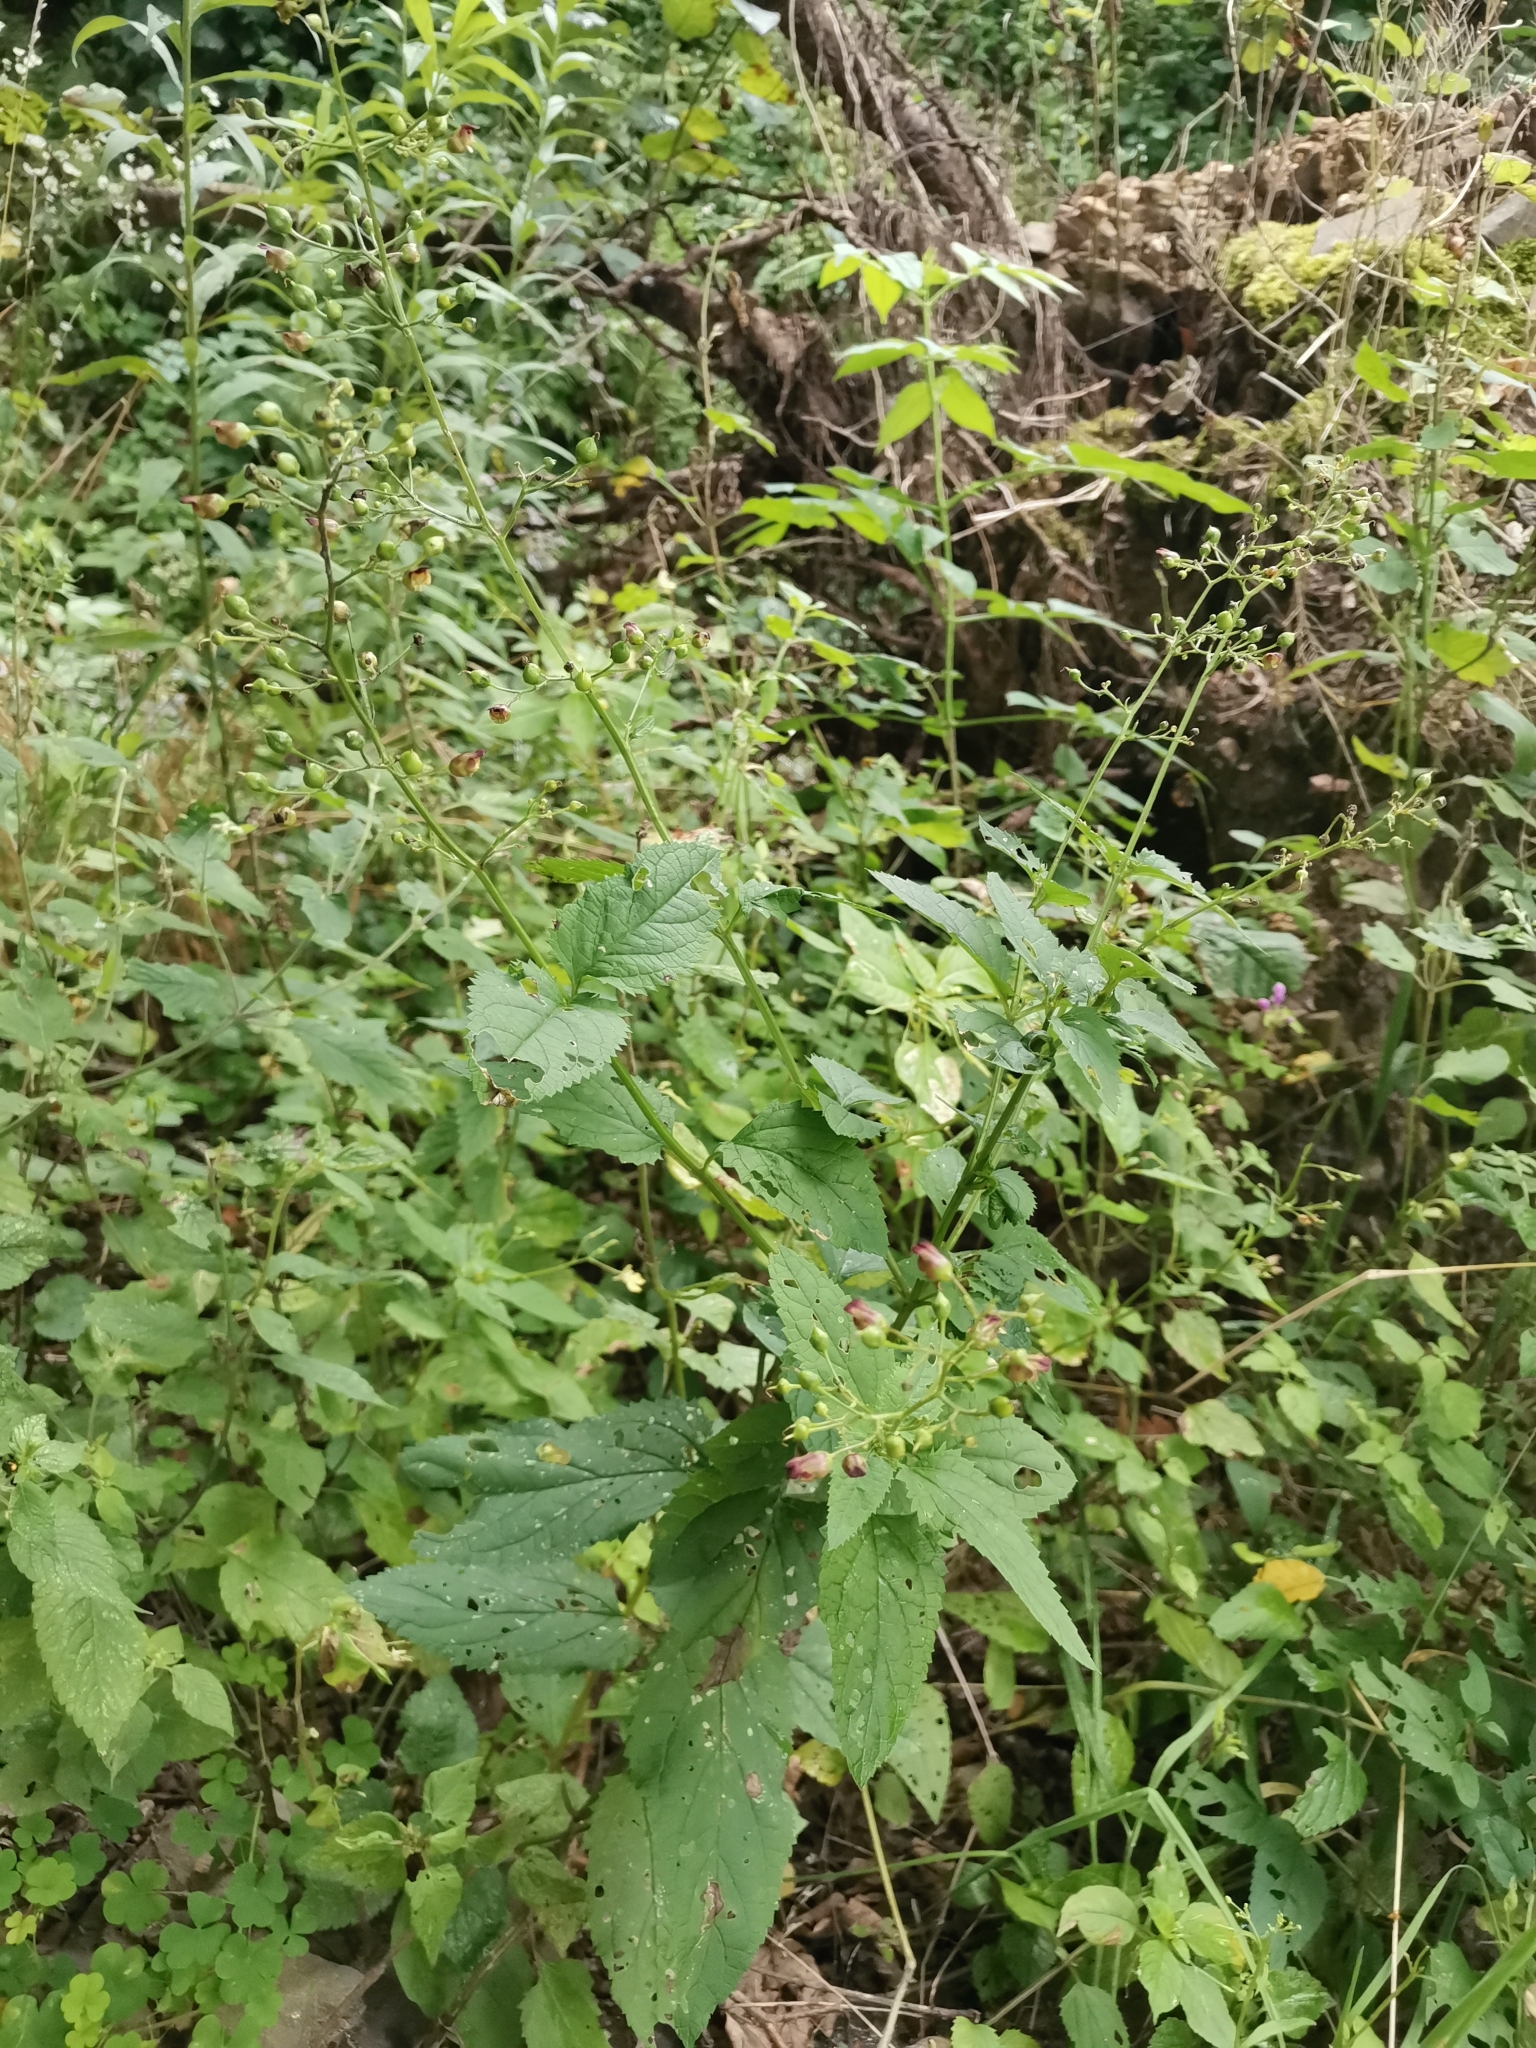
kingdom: Plantae
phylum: Tracheophyta
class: Magnoliopsida
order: Lamiales
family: Scrophulariaceae
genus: Scrophularia
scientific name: Scrophularia nodosa
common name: Common figwort
